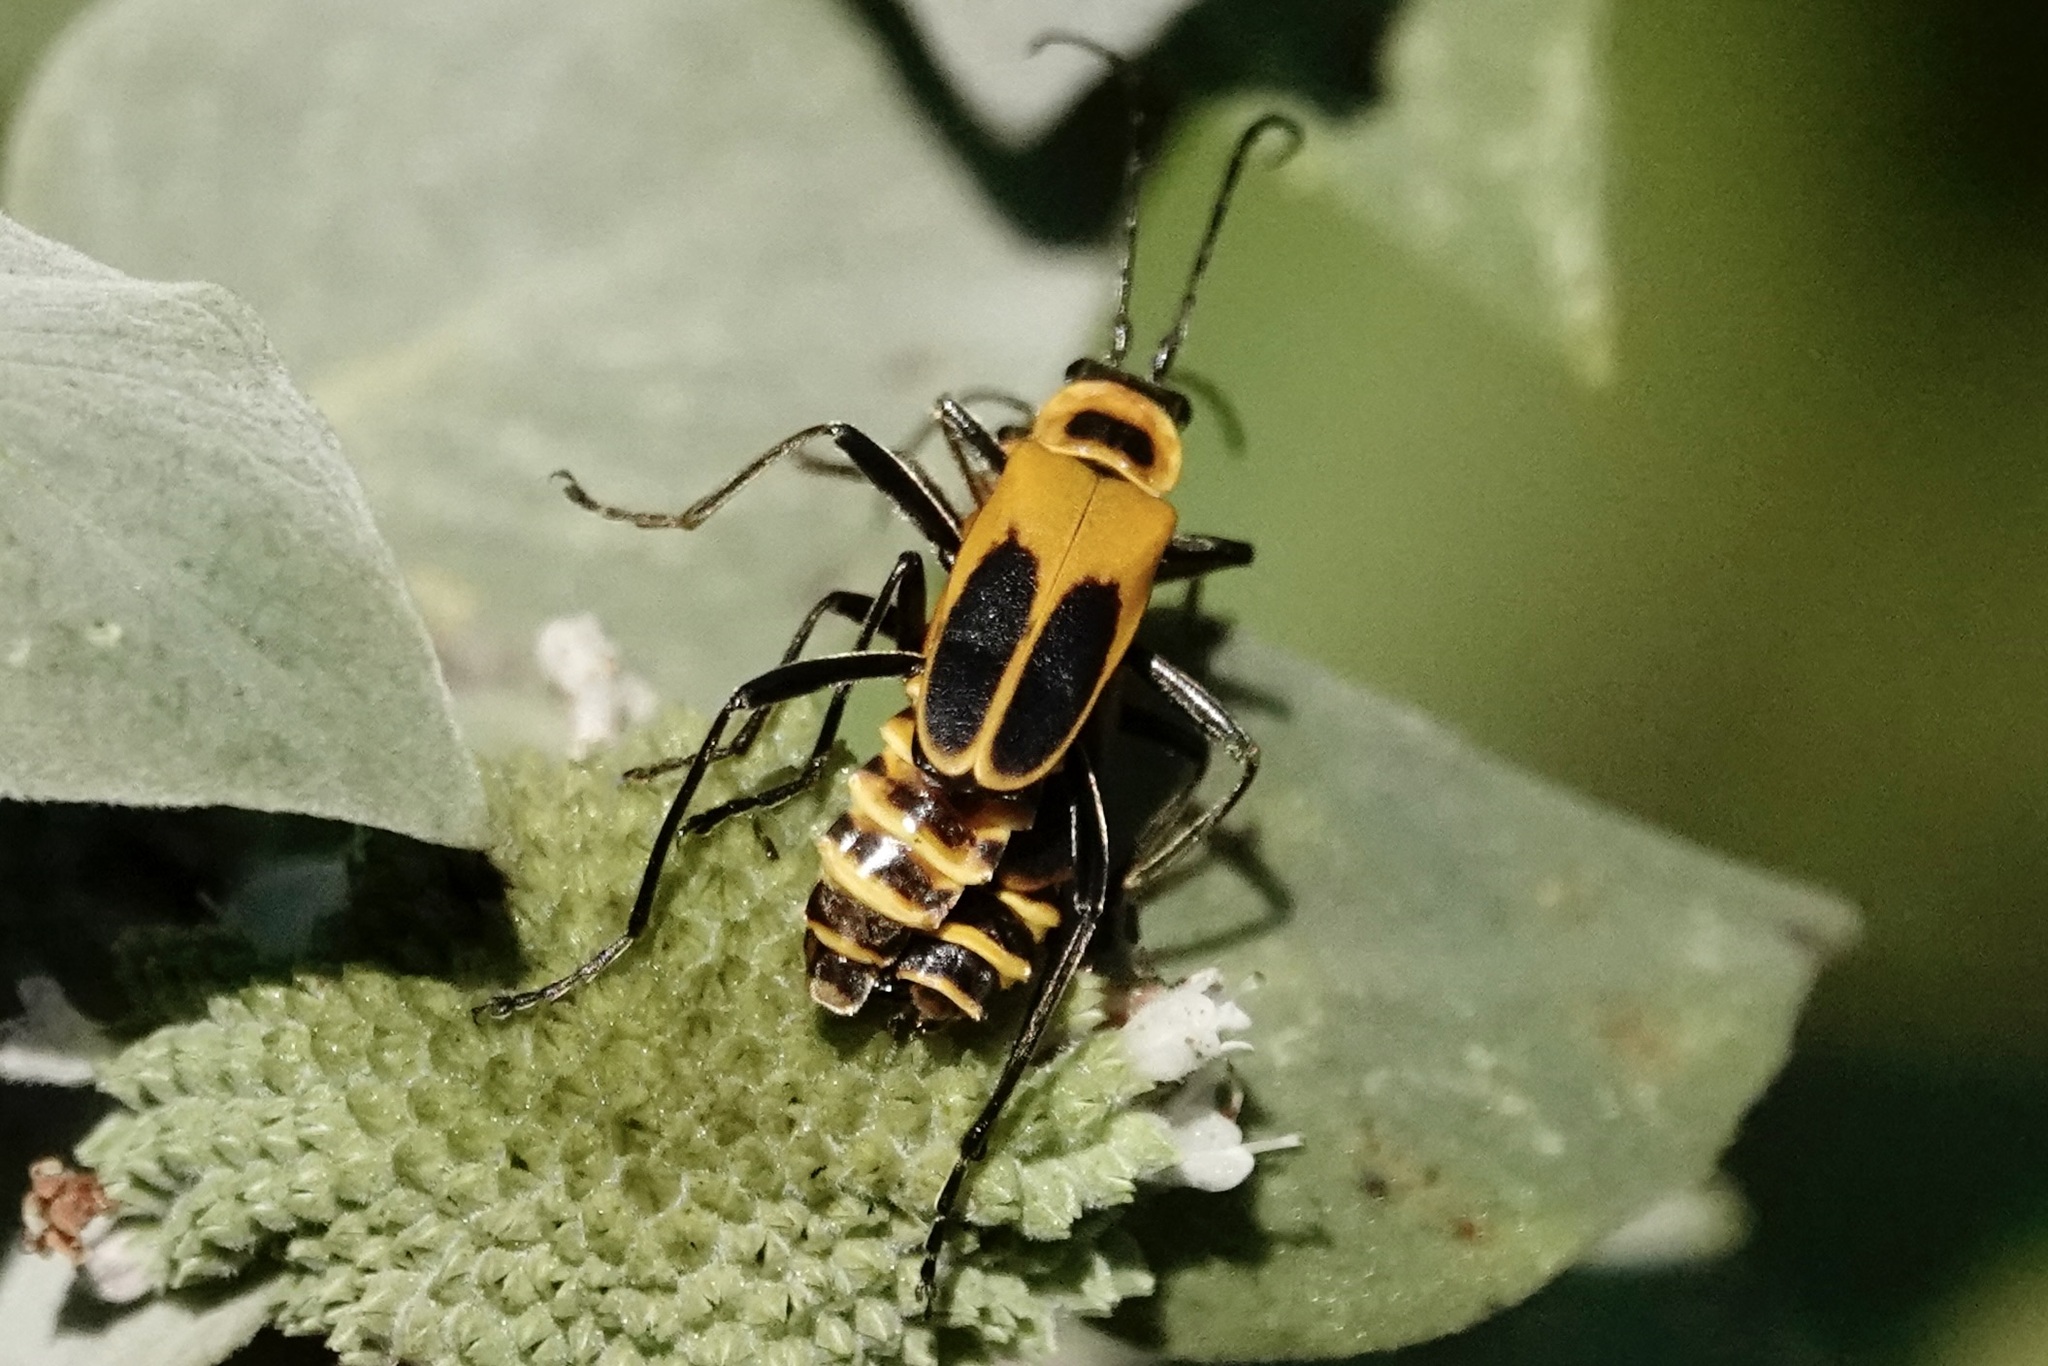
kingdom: Animalia
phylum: Arthropoda
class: Insecta
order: Coleoptera
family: Cantharidae
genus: Chauliognathus
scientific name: Chauliognathus pensylvanicus
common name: Goldenrod soldier beetle
